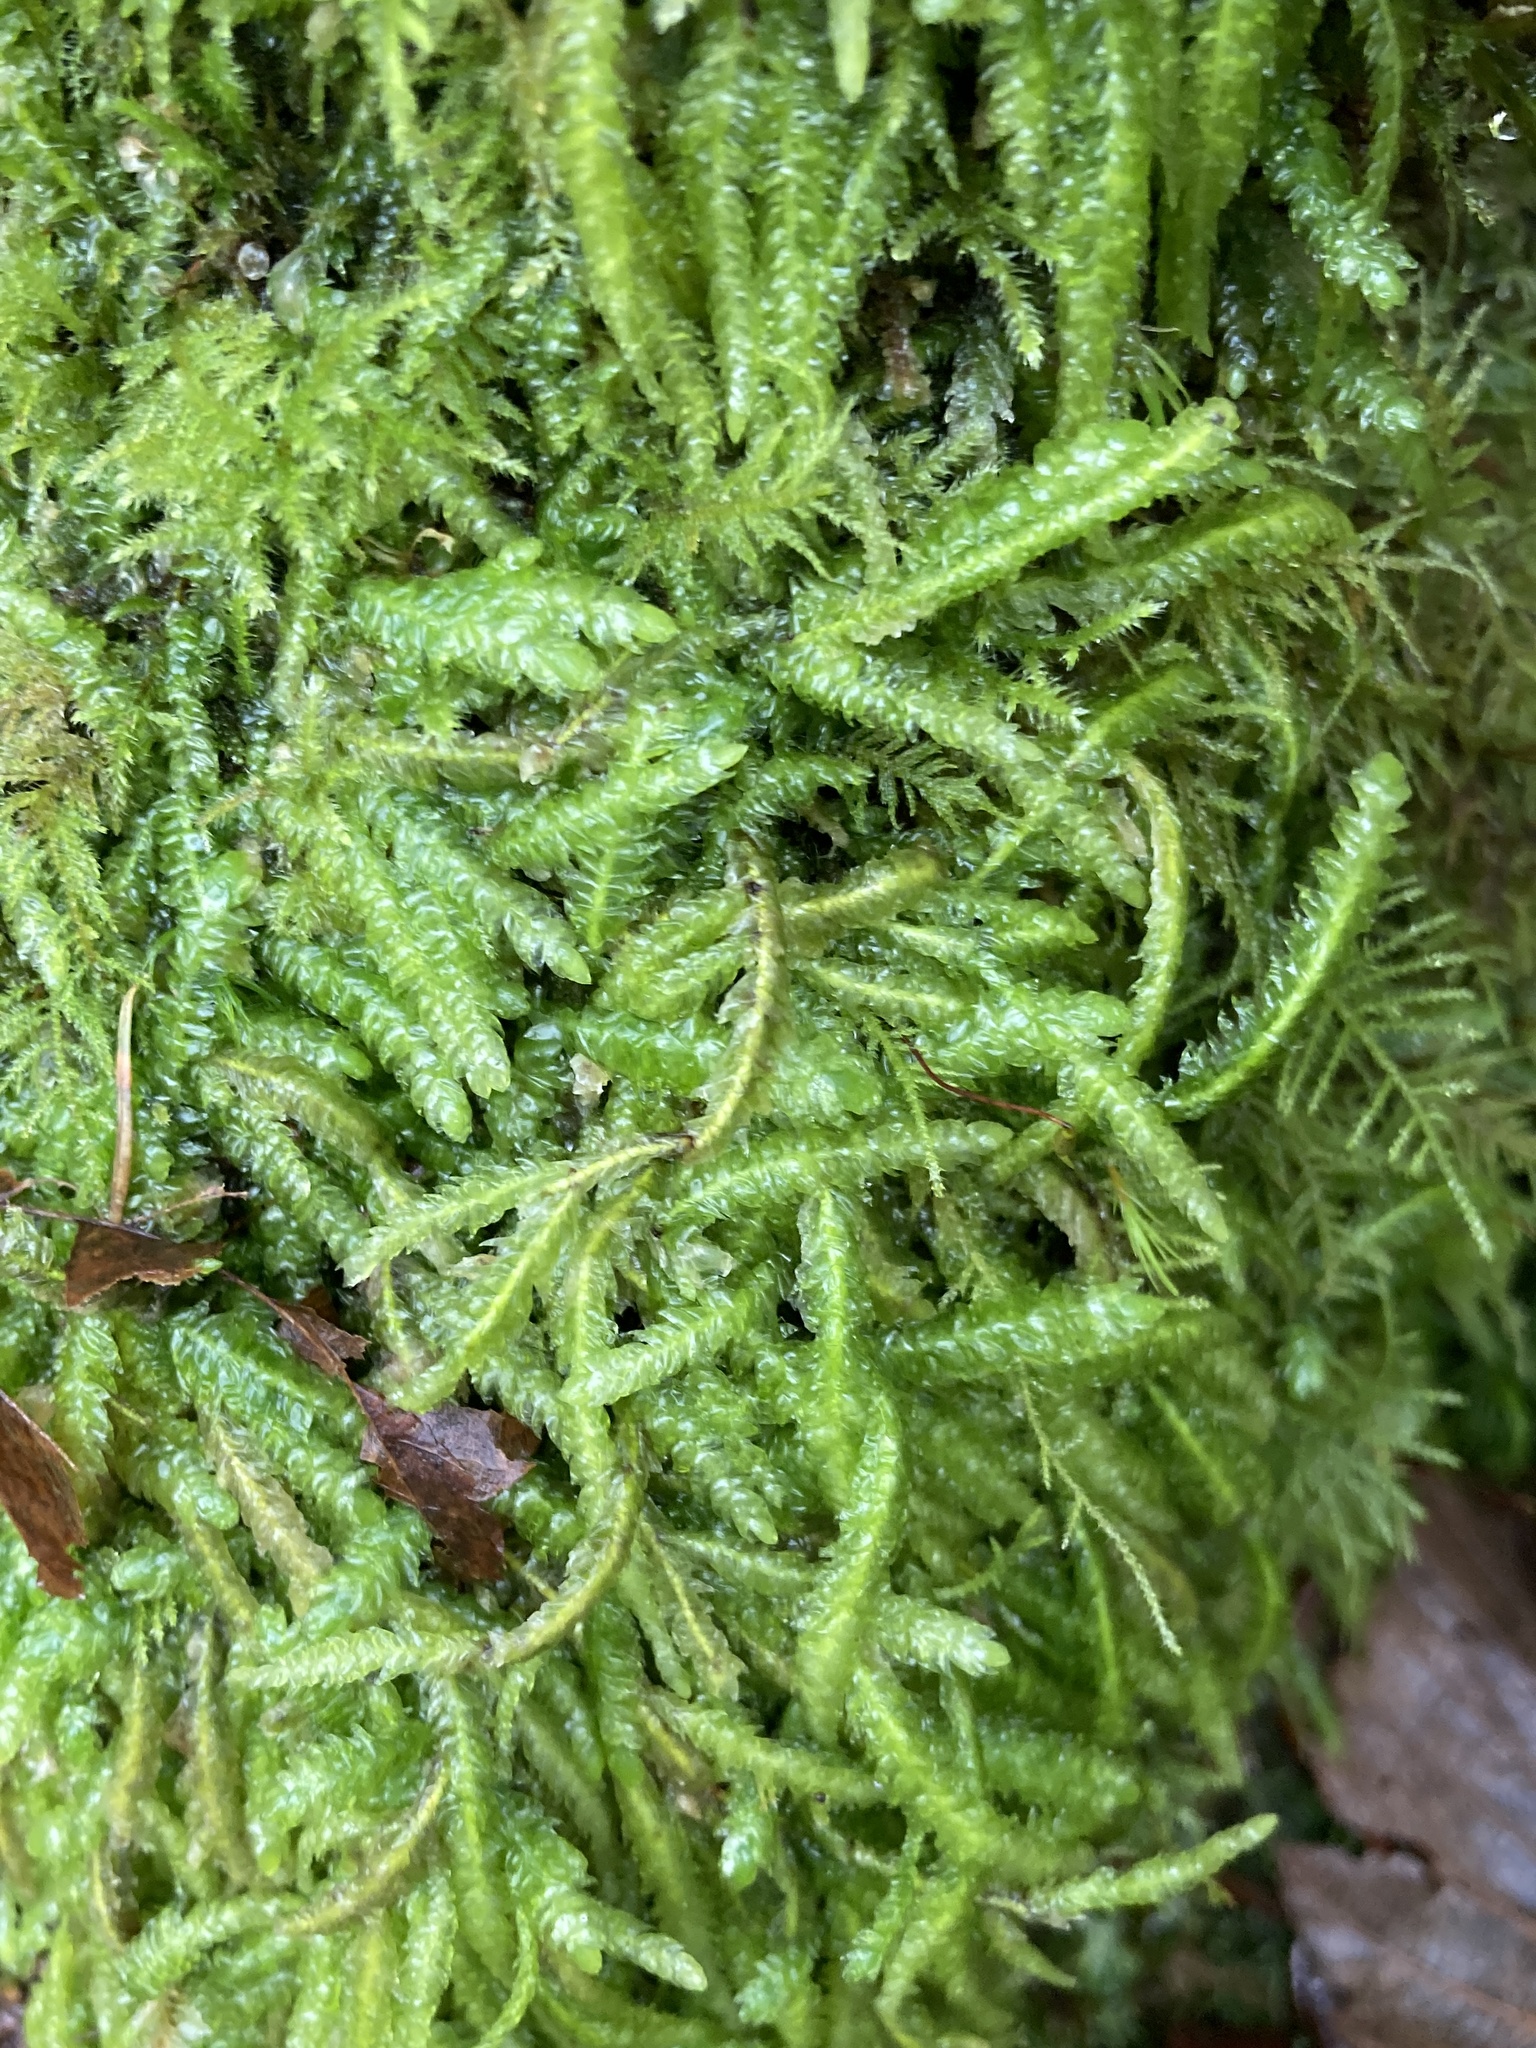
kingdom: Plantae
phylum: Bryophyta
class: Bryopsida
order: Hypnales
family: Plagiotheciaceae
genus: Plagiothecium
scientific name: Plagiothecium undulatum
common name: Waved silk-moss
